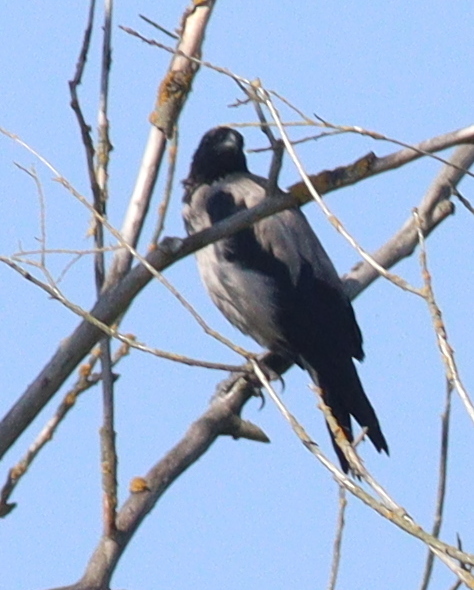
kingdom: Animalia
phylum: Chordata
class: Aves
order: Passeriformes
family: Corvidae
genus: Corvus
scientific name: Corvus cornix
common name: Hooded crow
